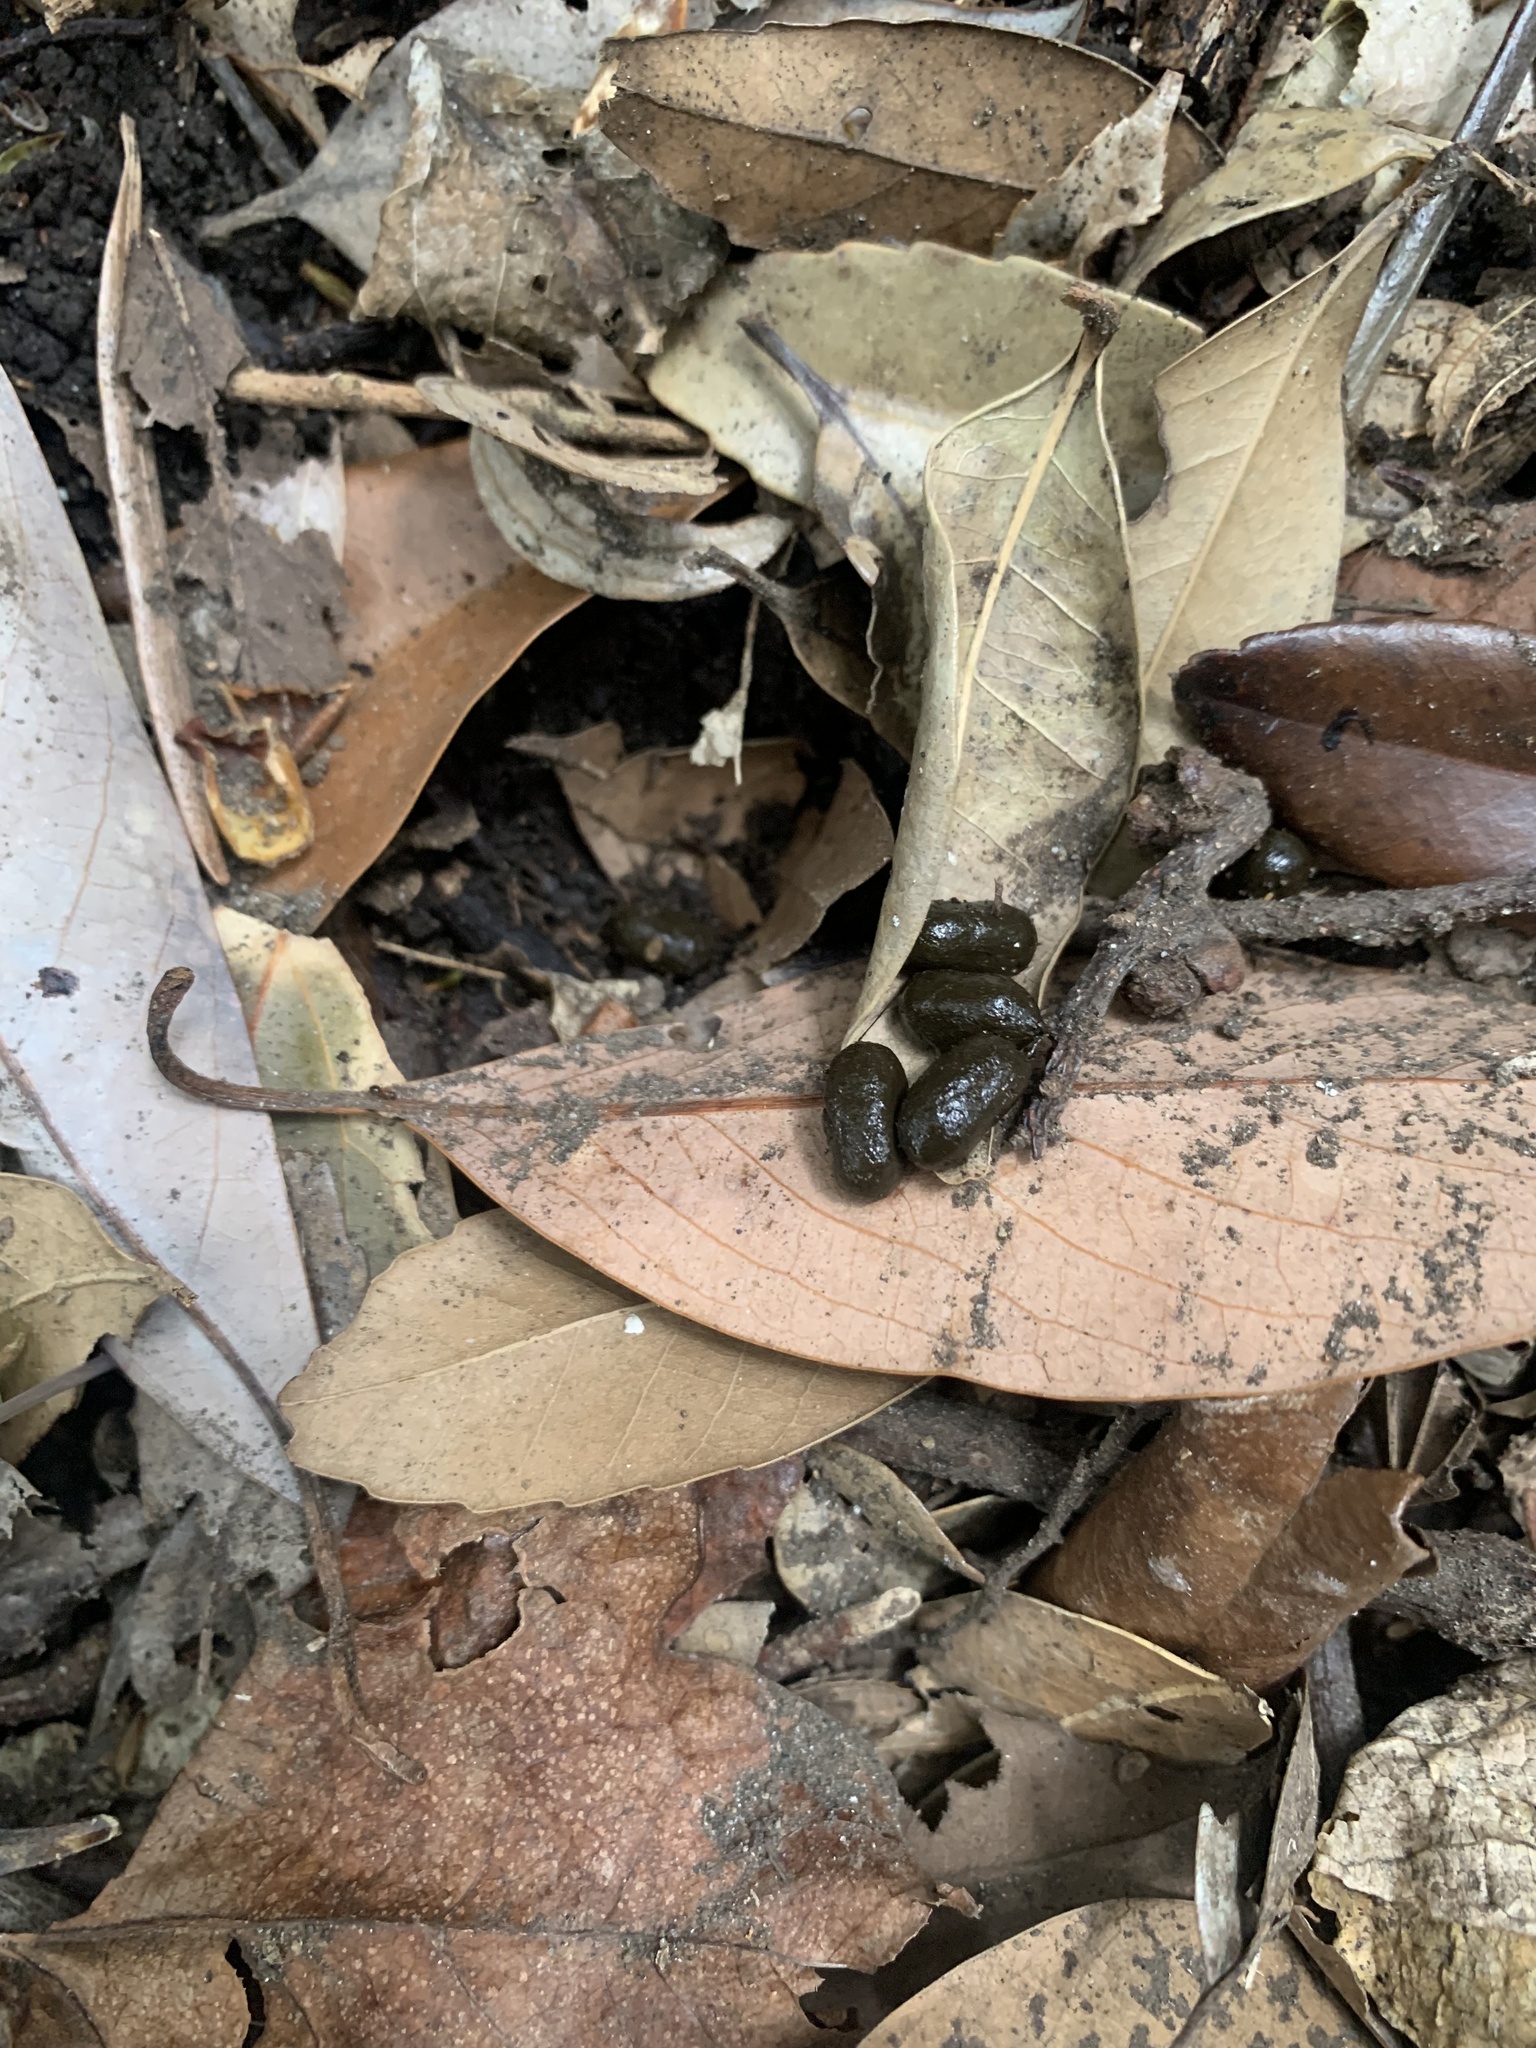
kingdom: Animalia
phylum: Chordata
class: Mammalia
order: Artiodactyla
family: Cervidae
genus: Muntiacus
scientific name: Muntiacus reevesi
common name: Reeves' muntjac
